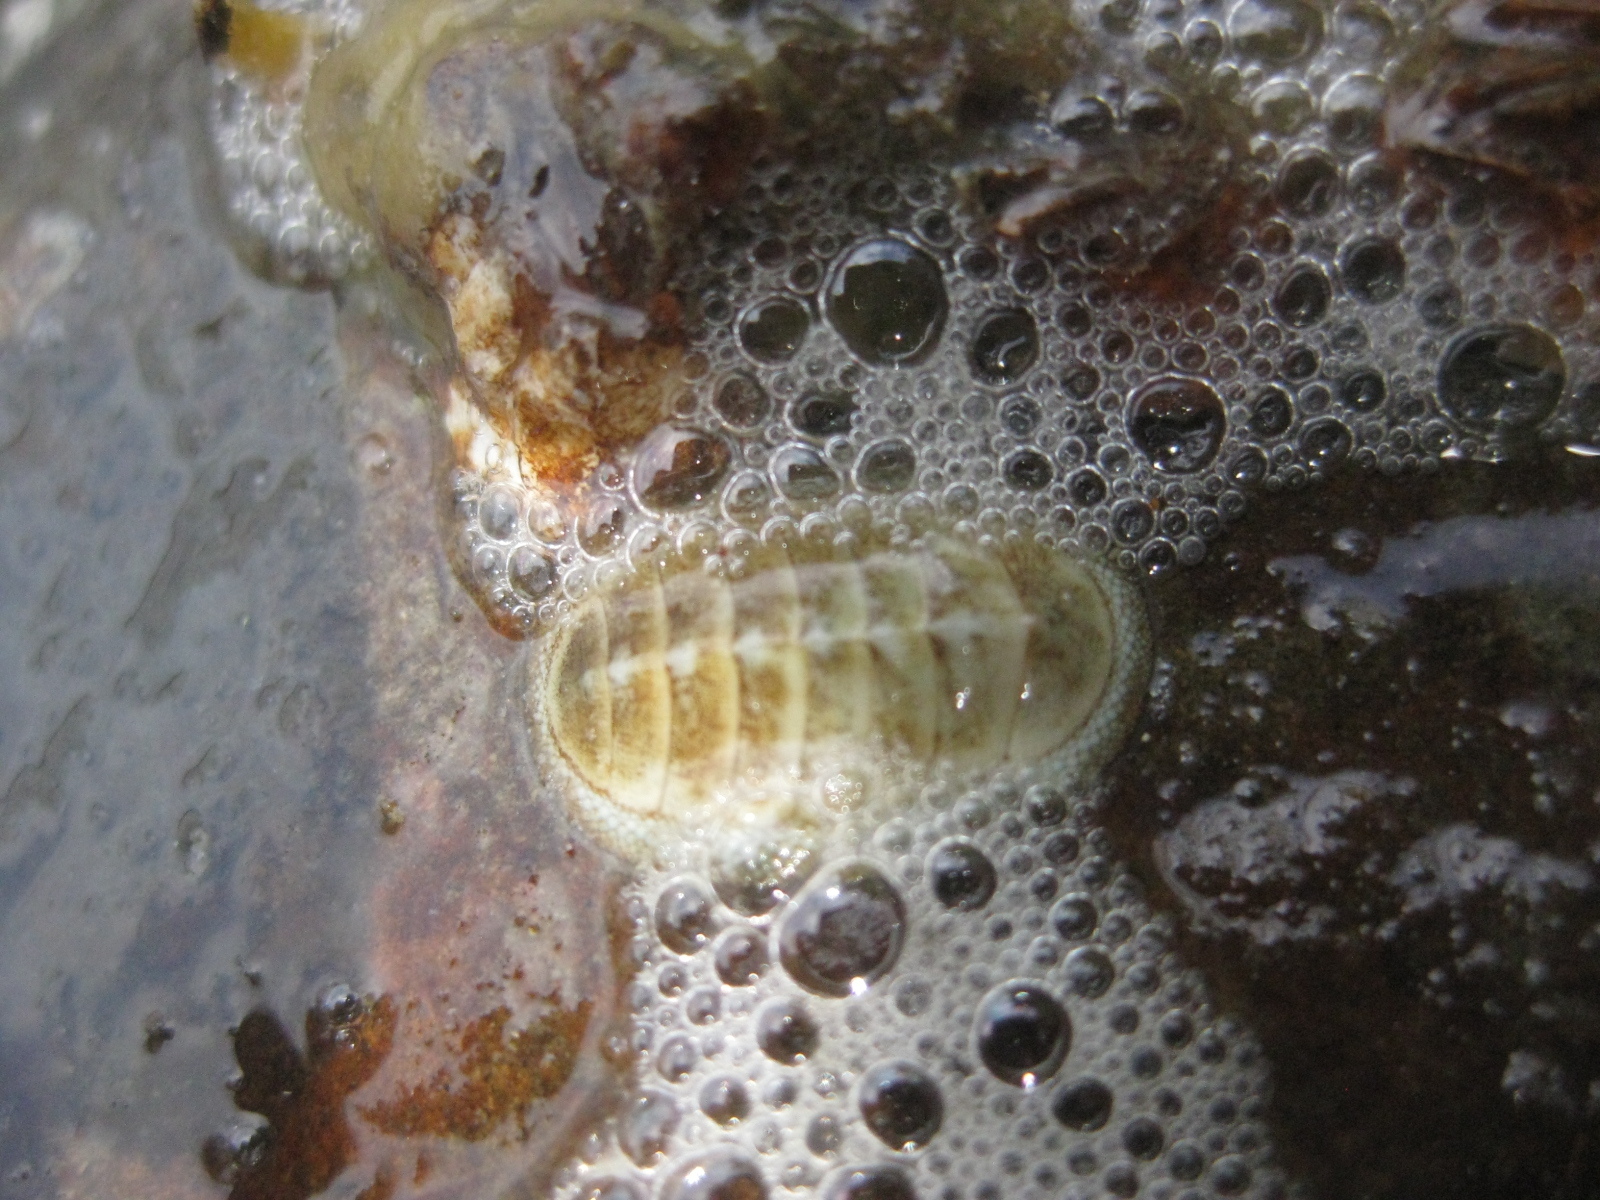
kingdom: Animalia
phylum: Mollusca
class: Polyplacophora
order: Chitonida
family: Chitonidae
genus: Chiton
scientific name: Chiton glaucus
